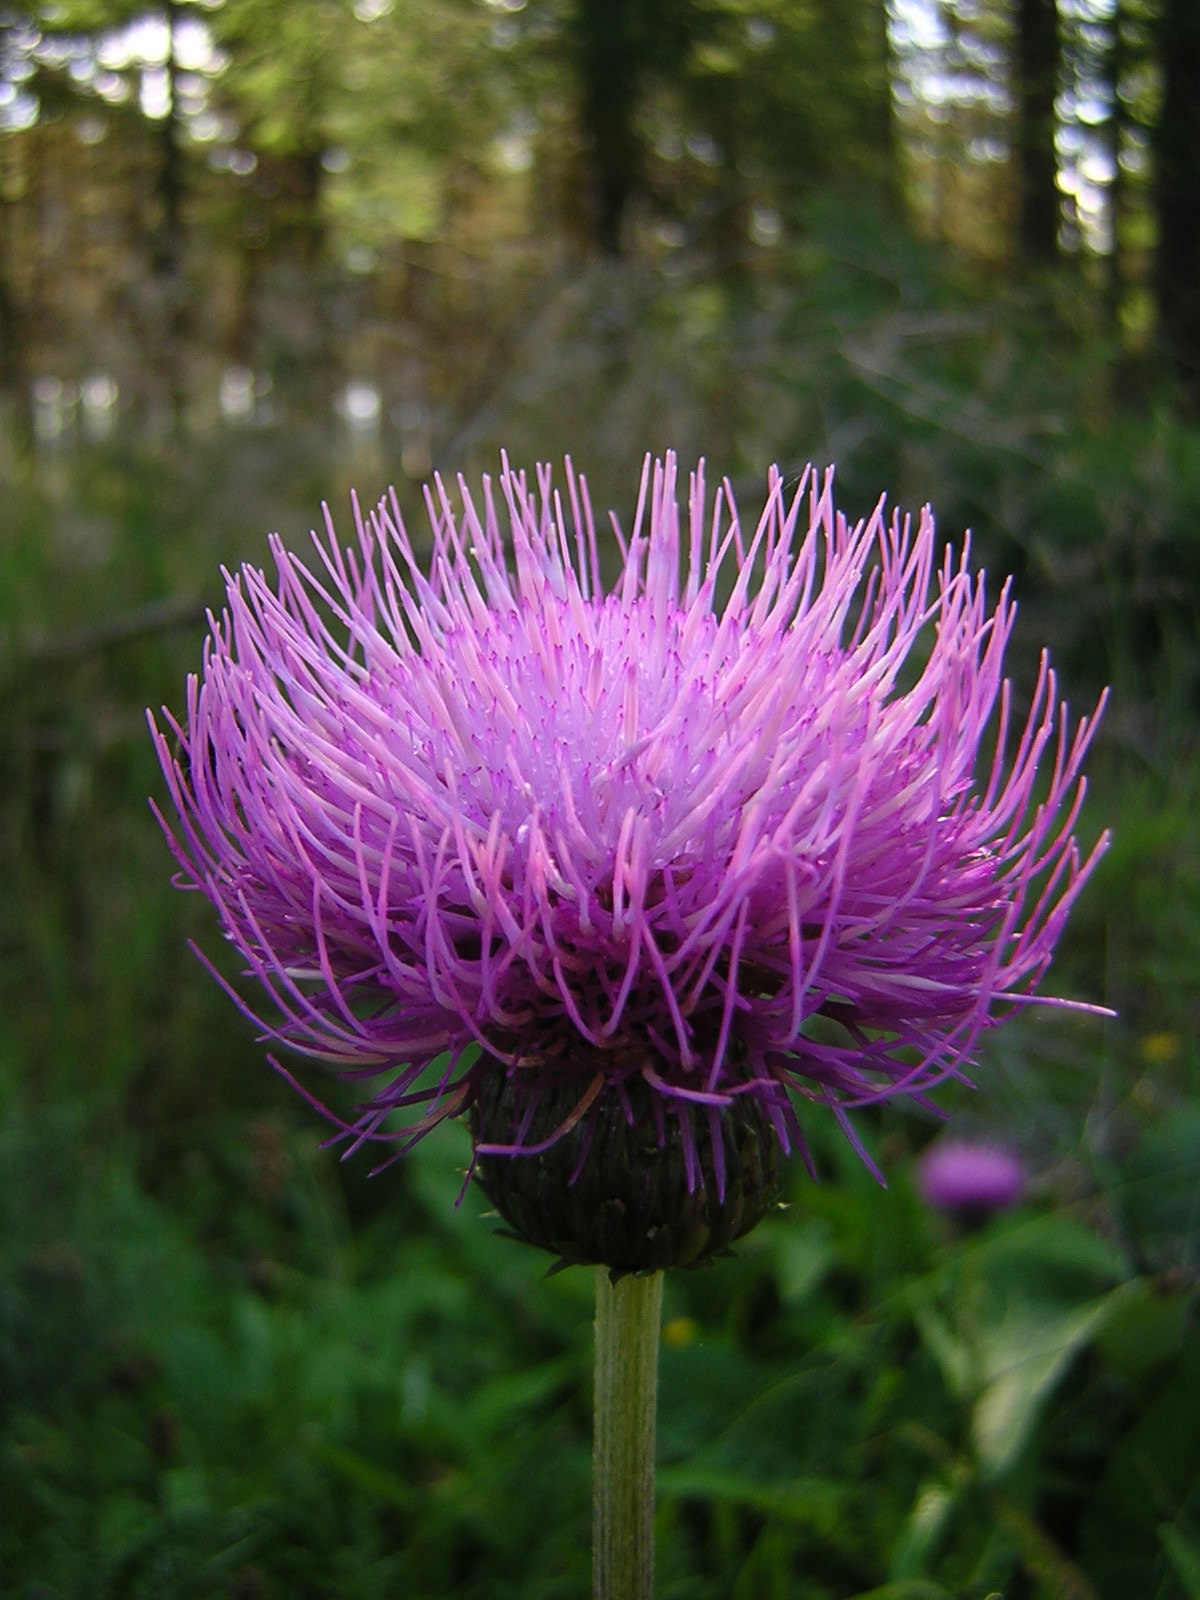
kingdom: Plantae
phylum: Tracheophyta
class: Magnoliopsida
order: Asterales
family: Asteraceae
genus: Cirsium
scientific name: Cirsium heterophyllum
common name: Melancholy thistle
